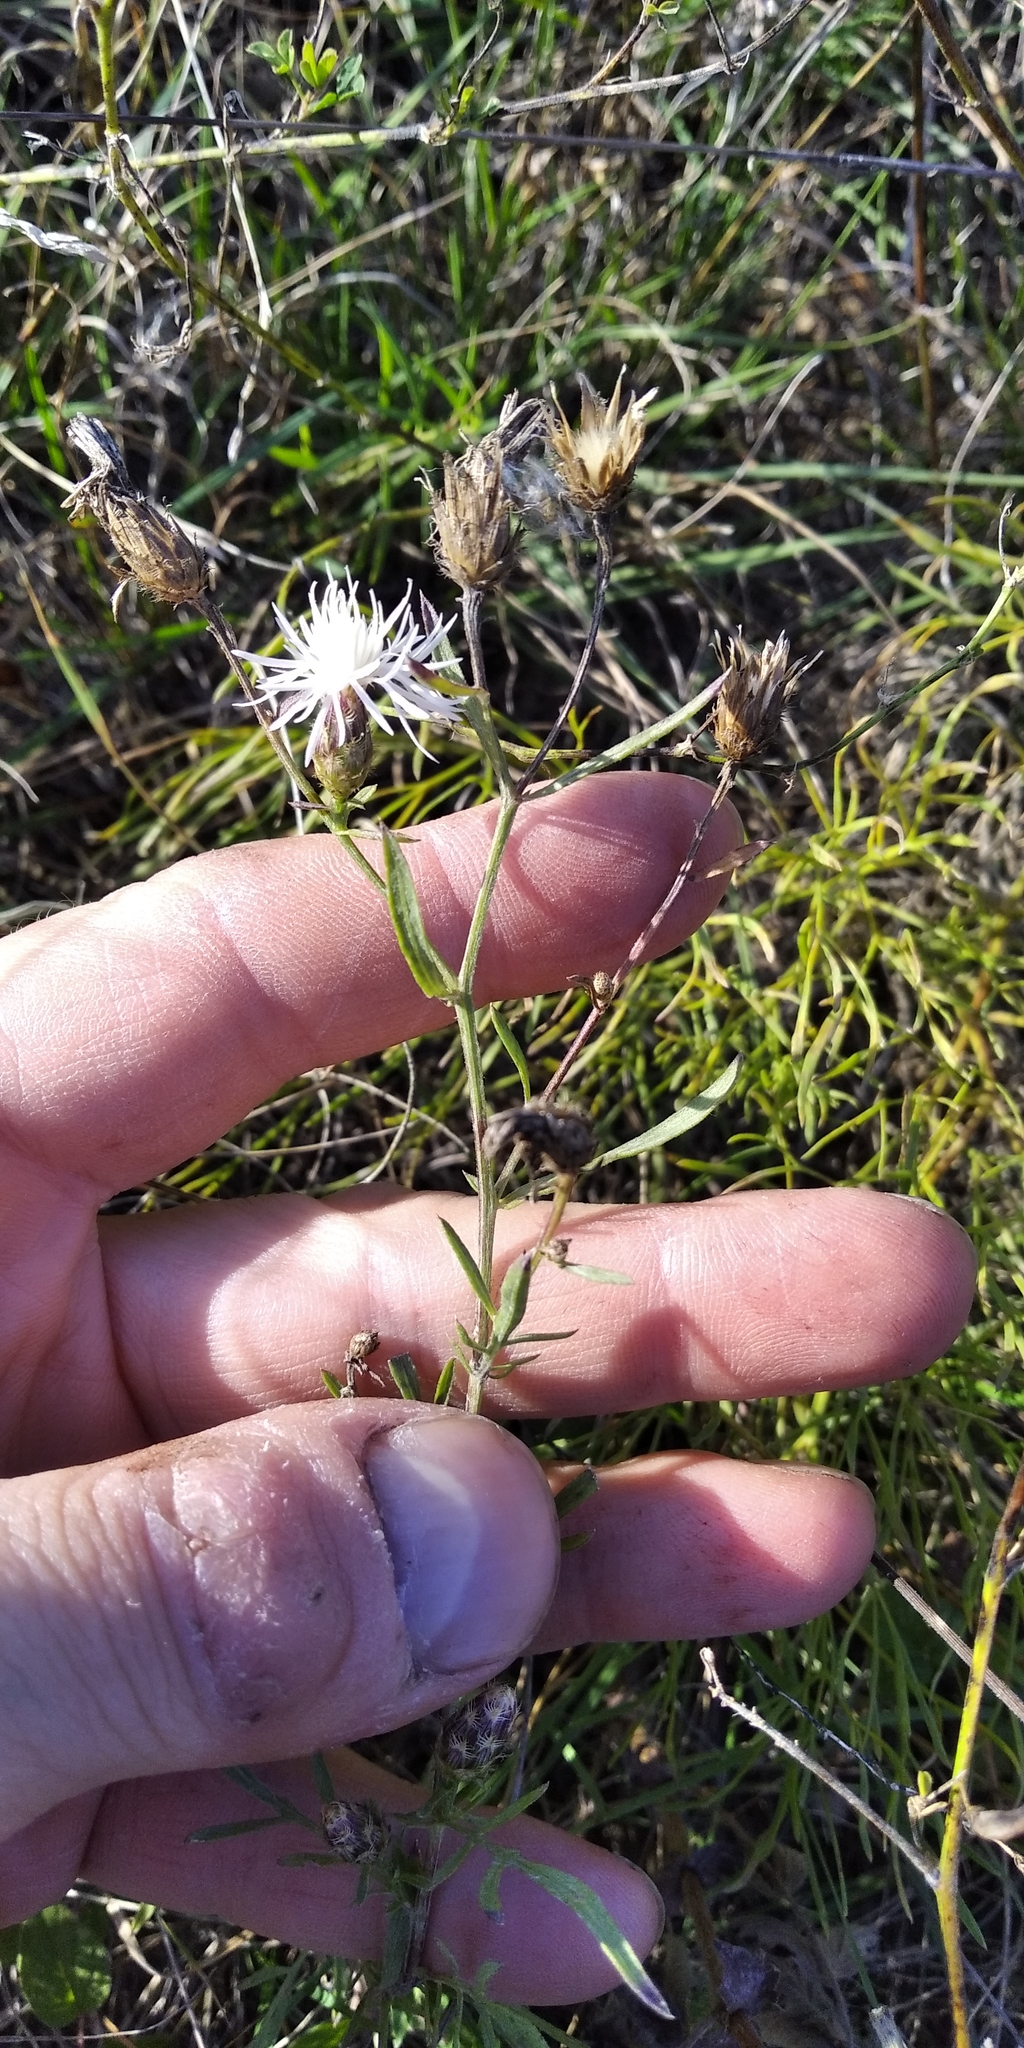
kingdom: Plantae
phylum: Tracheophyta
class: Magnoliopsida
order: Asterales
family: Asteraceae
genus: Centaurea
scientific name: Centaurea diffusa
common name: Diffuse knapweed
